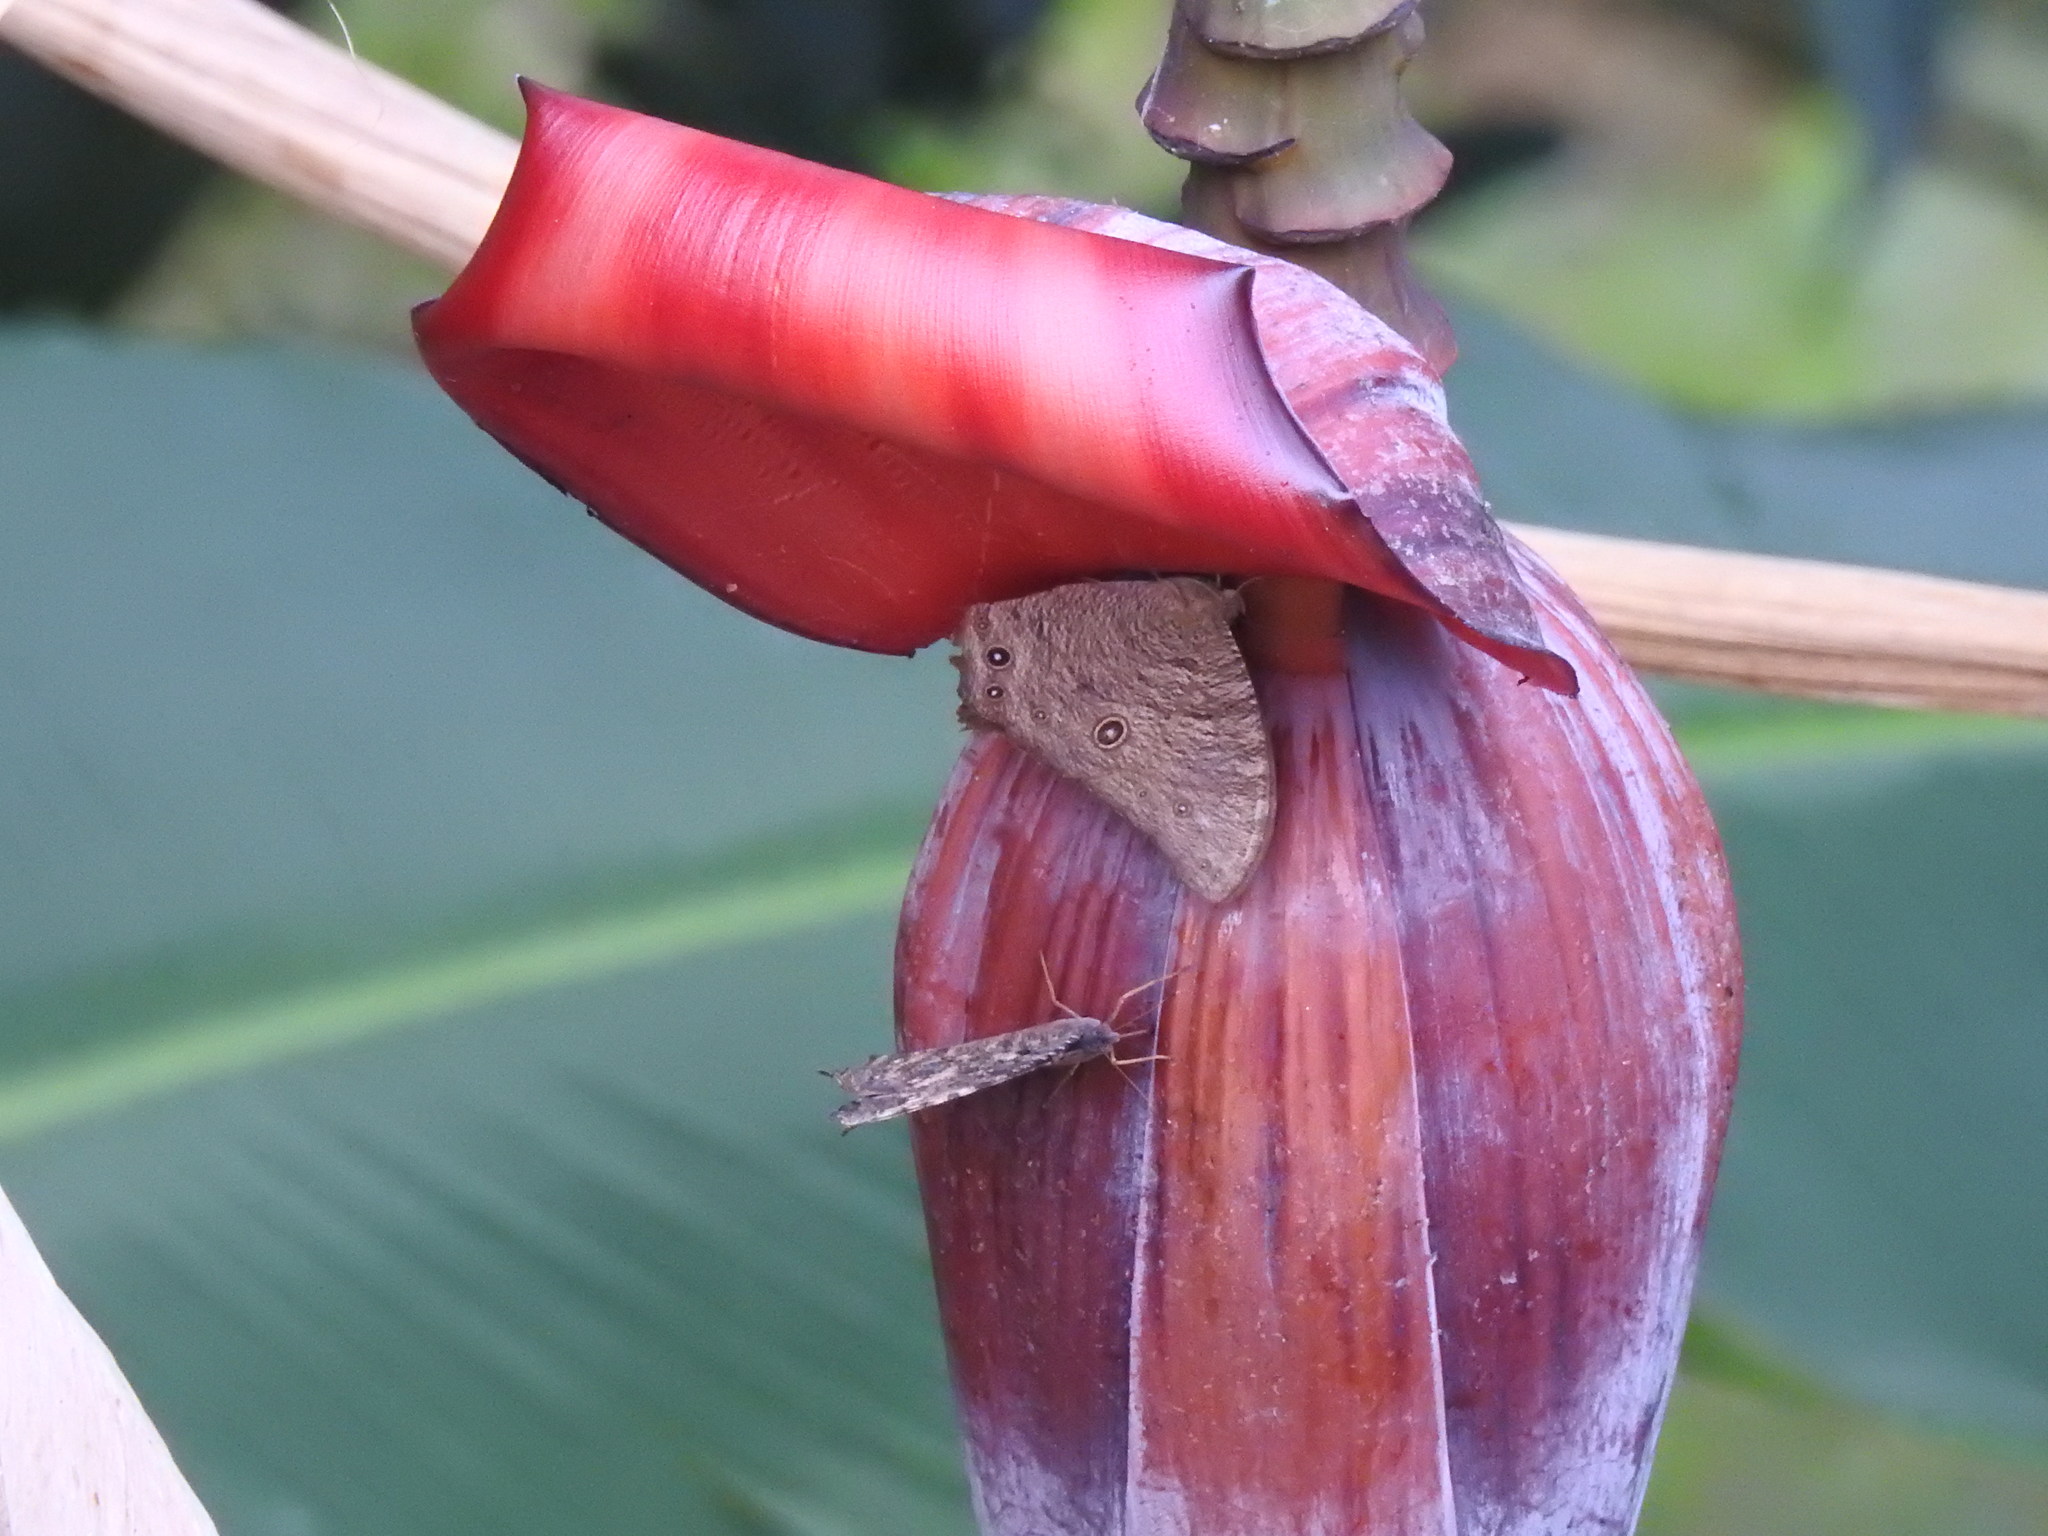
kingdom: Animalia
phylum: Arthropoda
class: Insecta
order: Lepidoptera
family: Nymphalidae
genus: Melanitis
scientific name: Melanitis leda
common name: Twilight brown
